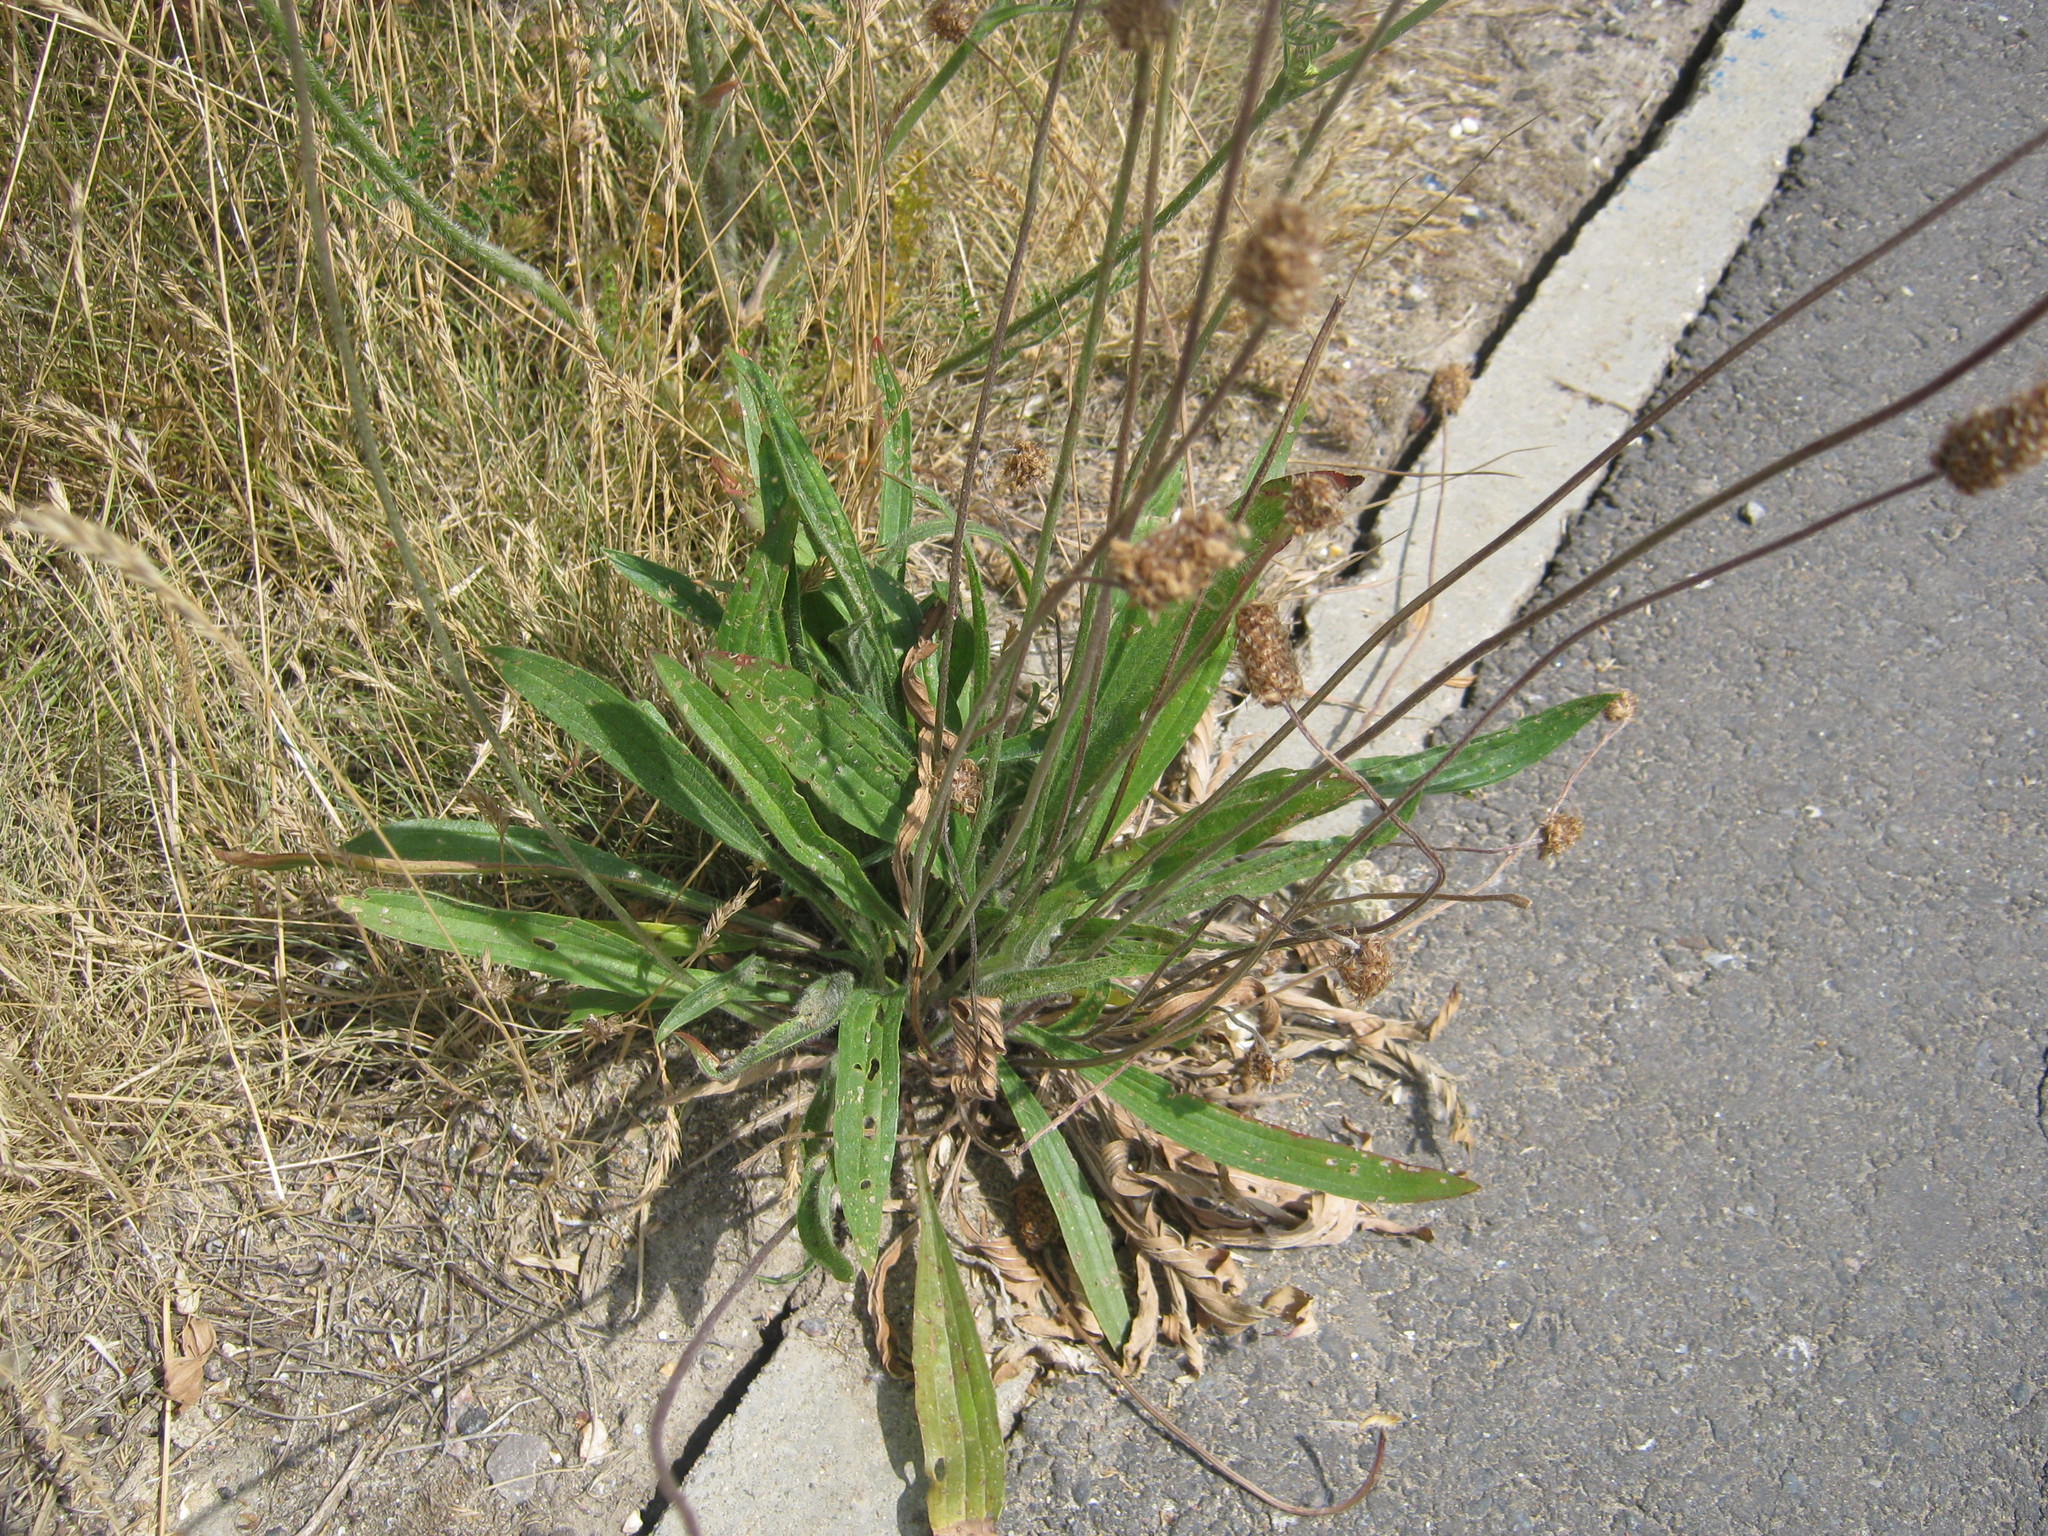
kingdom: Plantae
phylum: Tracheophyta
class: Magnoliopsida
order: Lamiales
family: Plantaginaceae
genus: Plantago
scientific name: Plantago lanceolata
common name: Ribwort plantain
